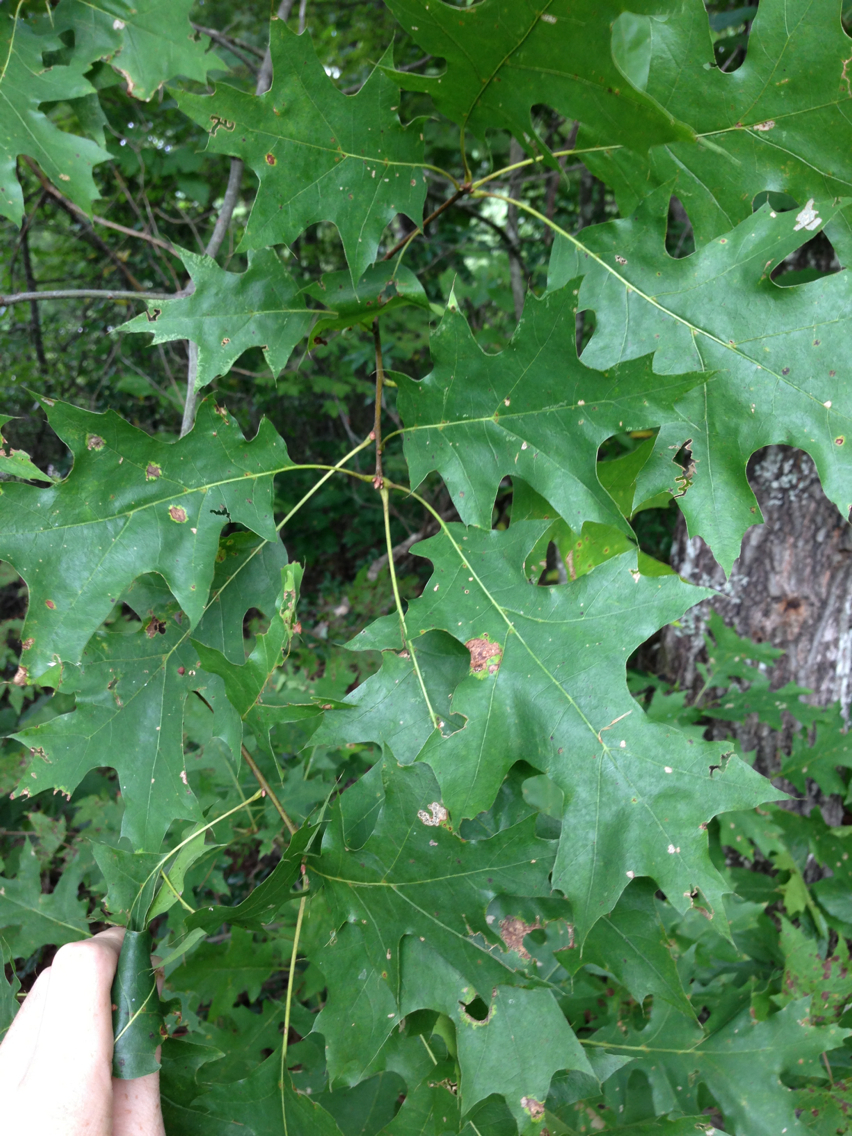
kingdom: Plantae
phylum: Tracheophyta
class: Magnoliopsida
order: Fagales
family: Fagaceae
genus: Quercus
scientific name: Quercus rubra
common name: Red oak
